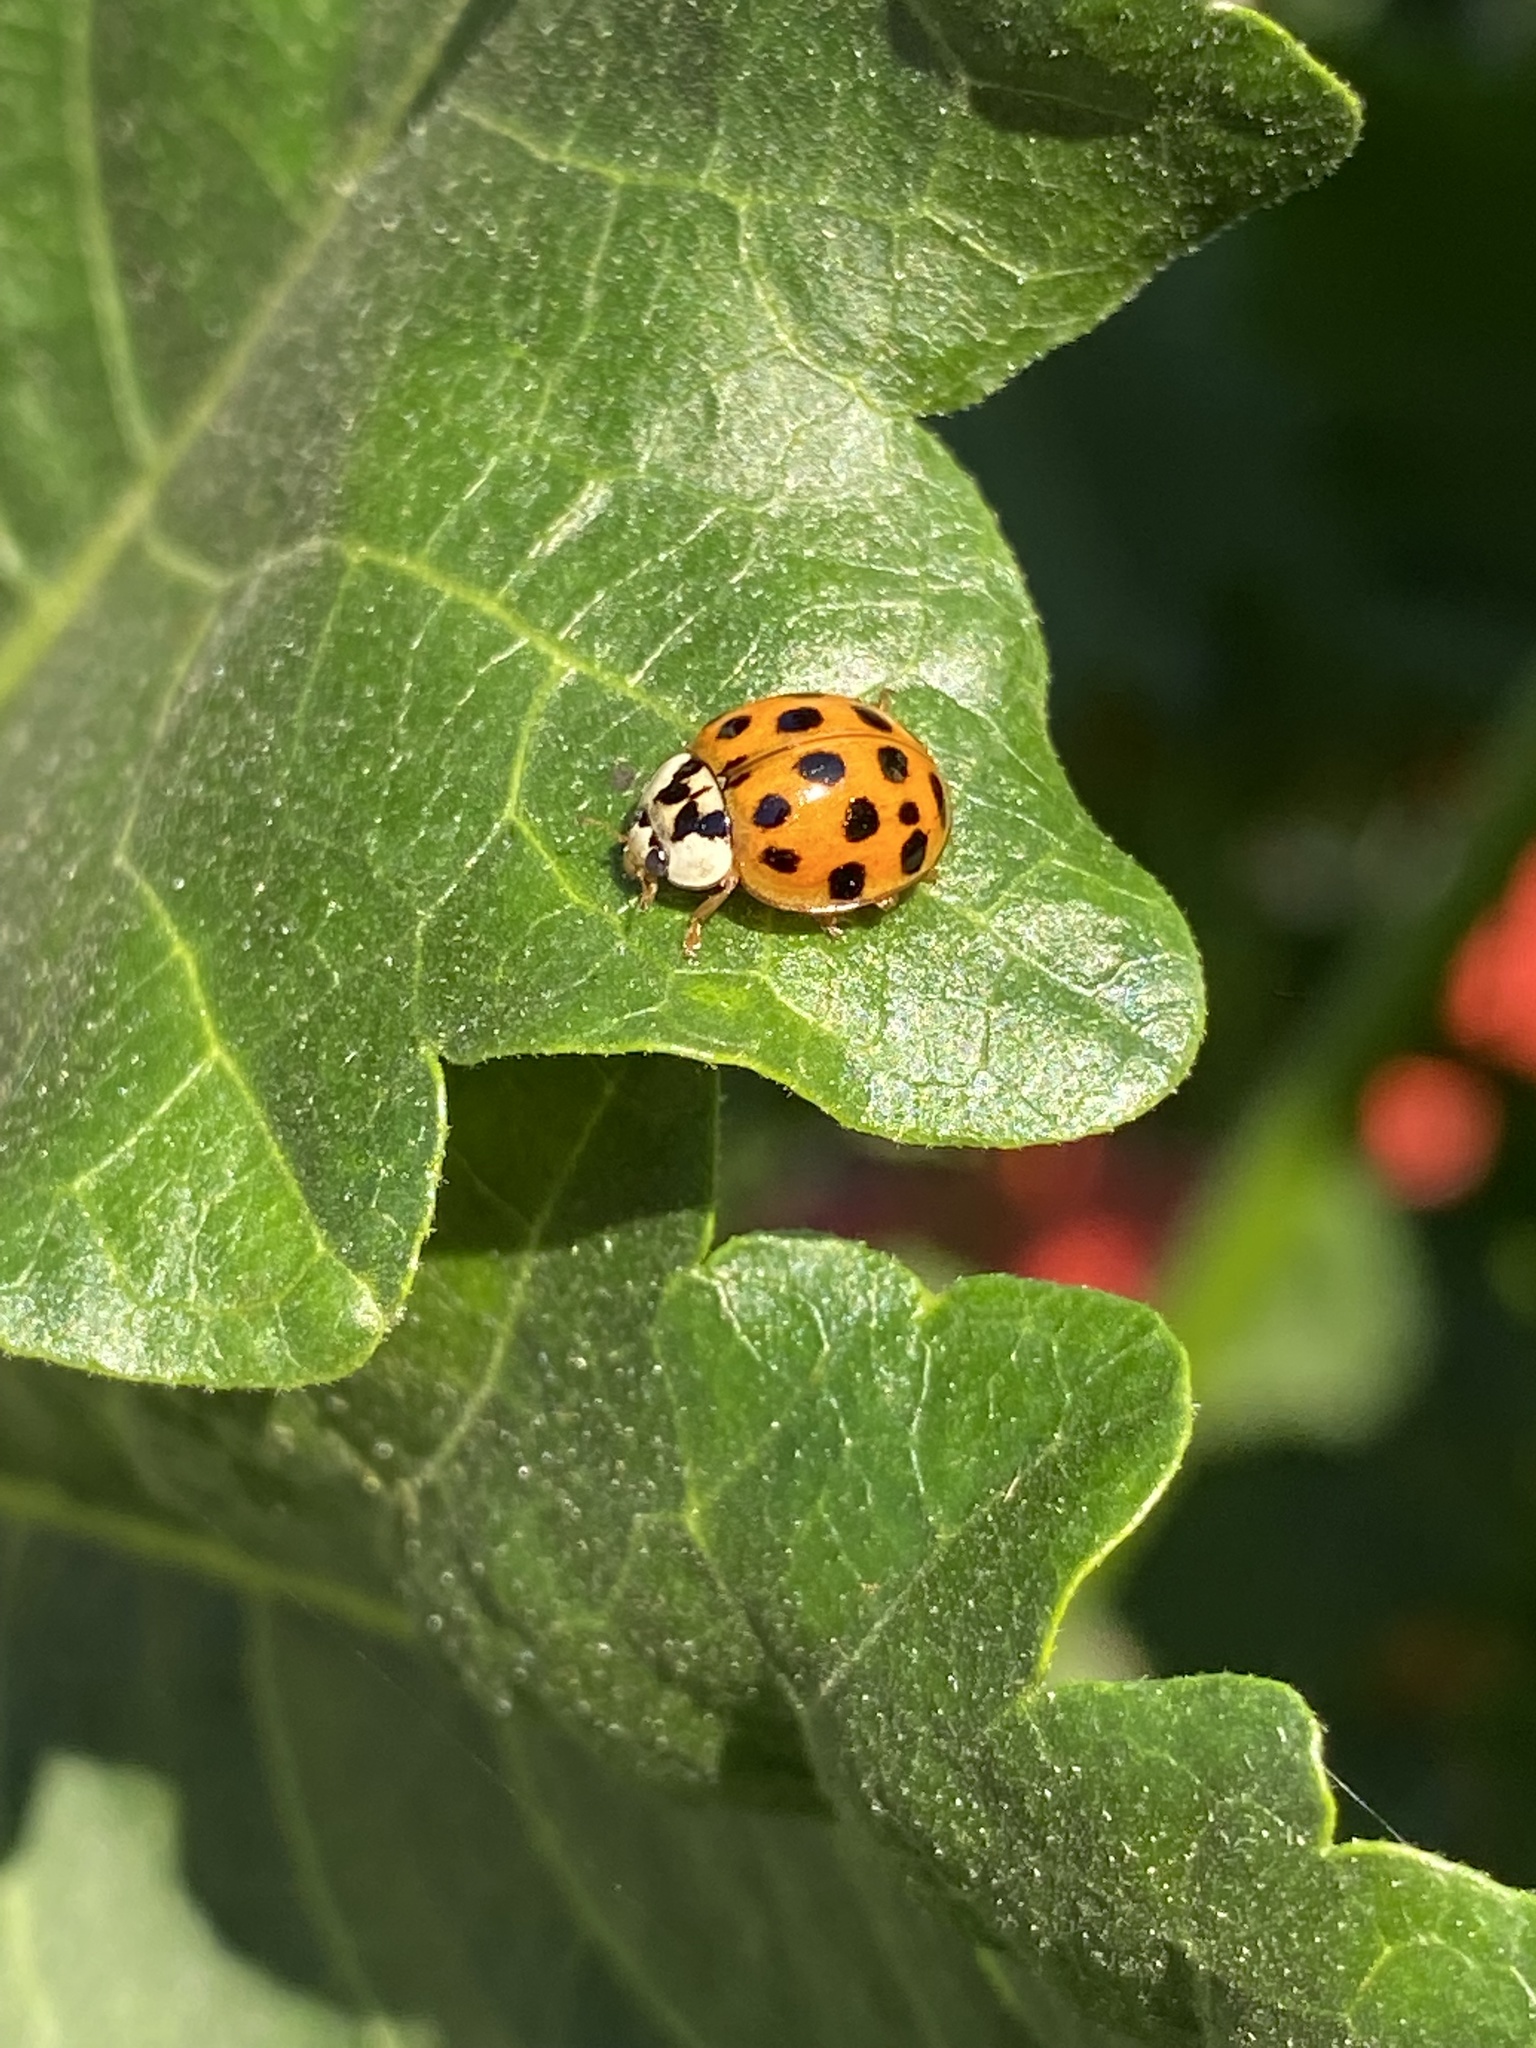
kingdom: Animalia
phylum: Arthropoda
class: Insecta
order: Coleoptera
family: Coccinellidae
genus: Harmonia
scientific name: Harmonia axyridis
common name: Harlequin ladybird
